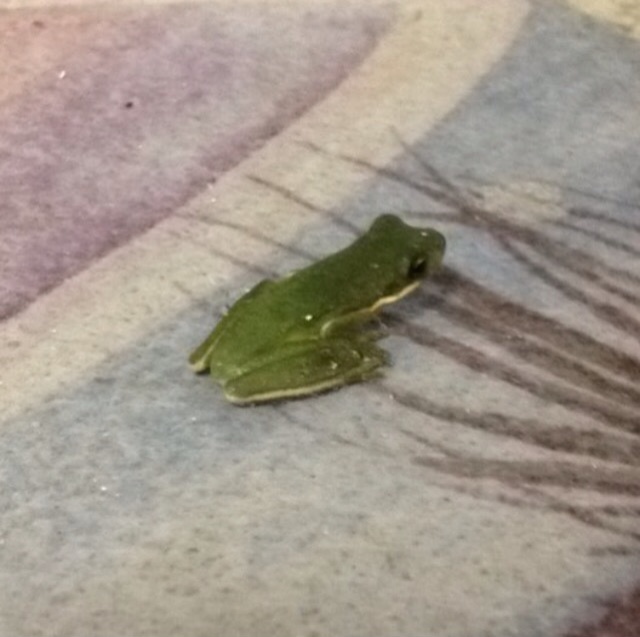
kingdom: Animalia
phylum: Chordata
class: Amphibia
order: Anura
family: Hylidae
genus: Dryophytes
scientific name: Dryophytes cinereus
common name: Green treefrog
